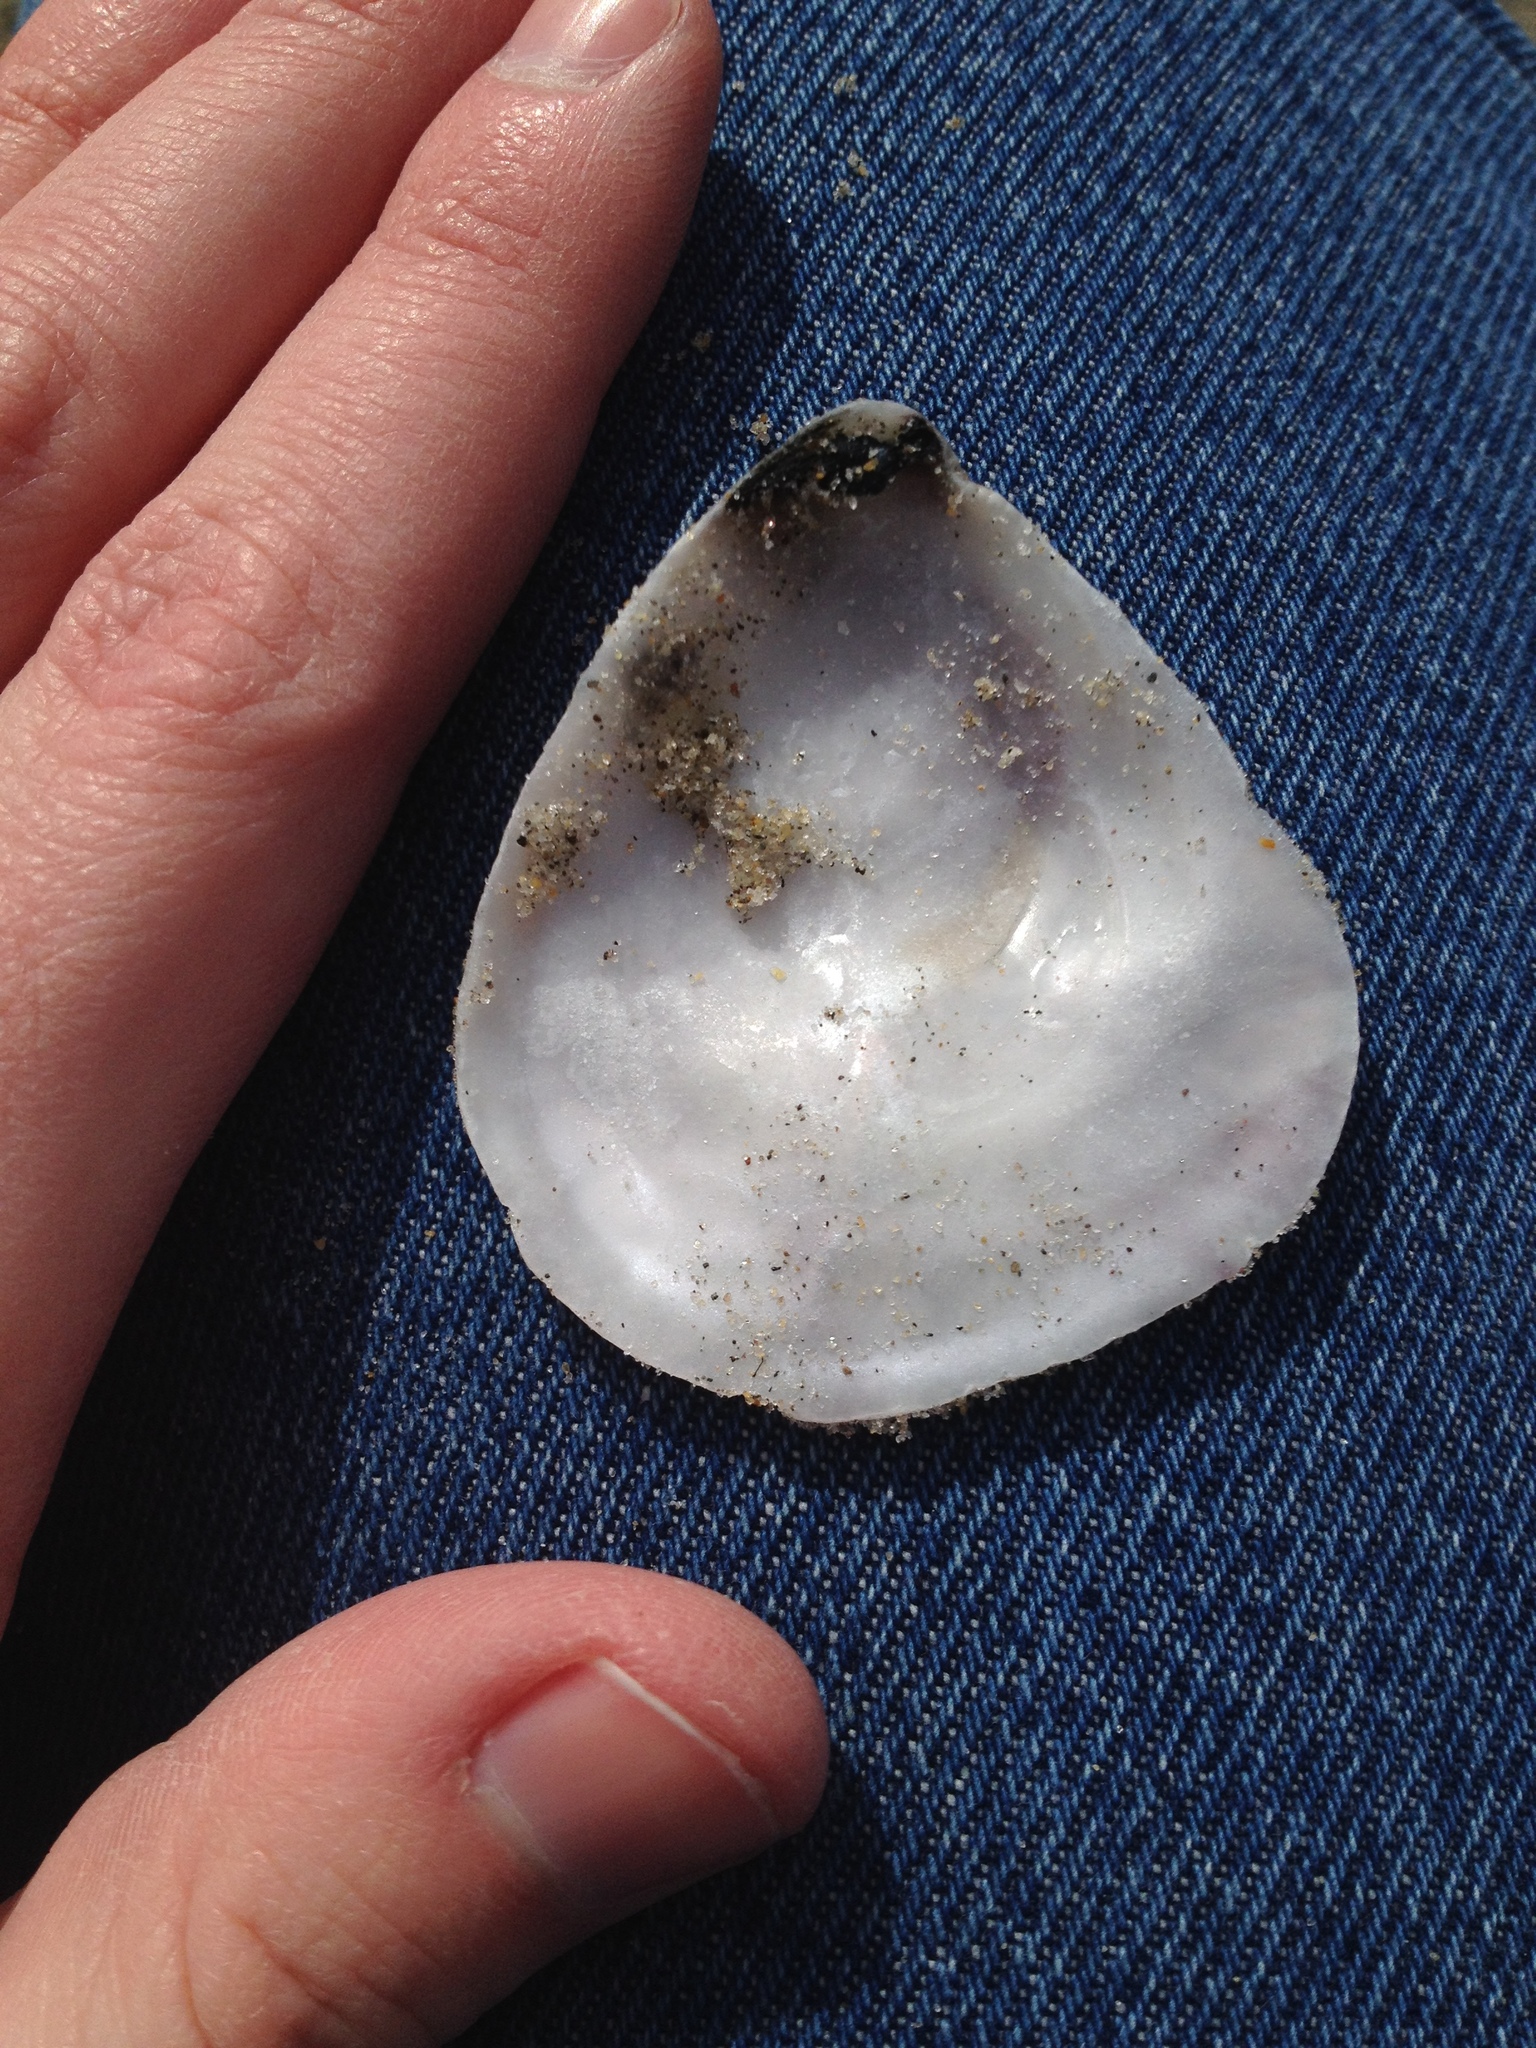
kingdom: Animalia
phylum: Mollusca
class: Bivalvia
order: Ostreida
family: Ostreidae
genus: Crassostrea
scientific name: Crassostrea virginica
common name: American oyster
